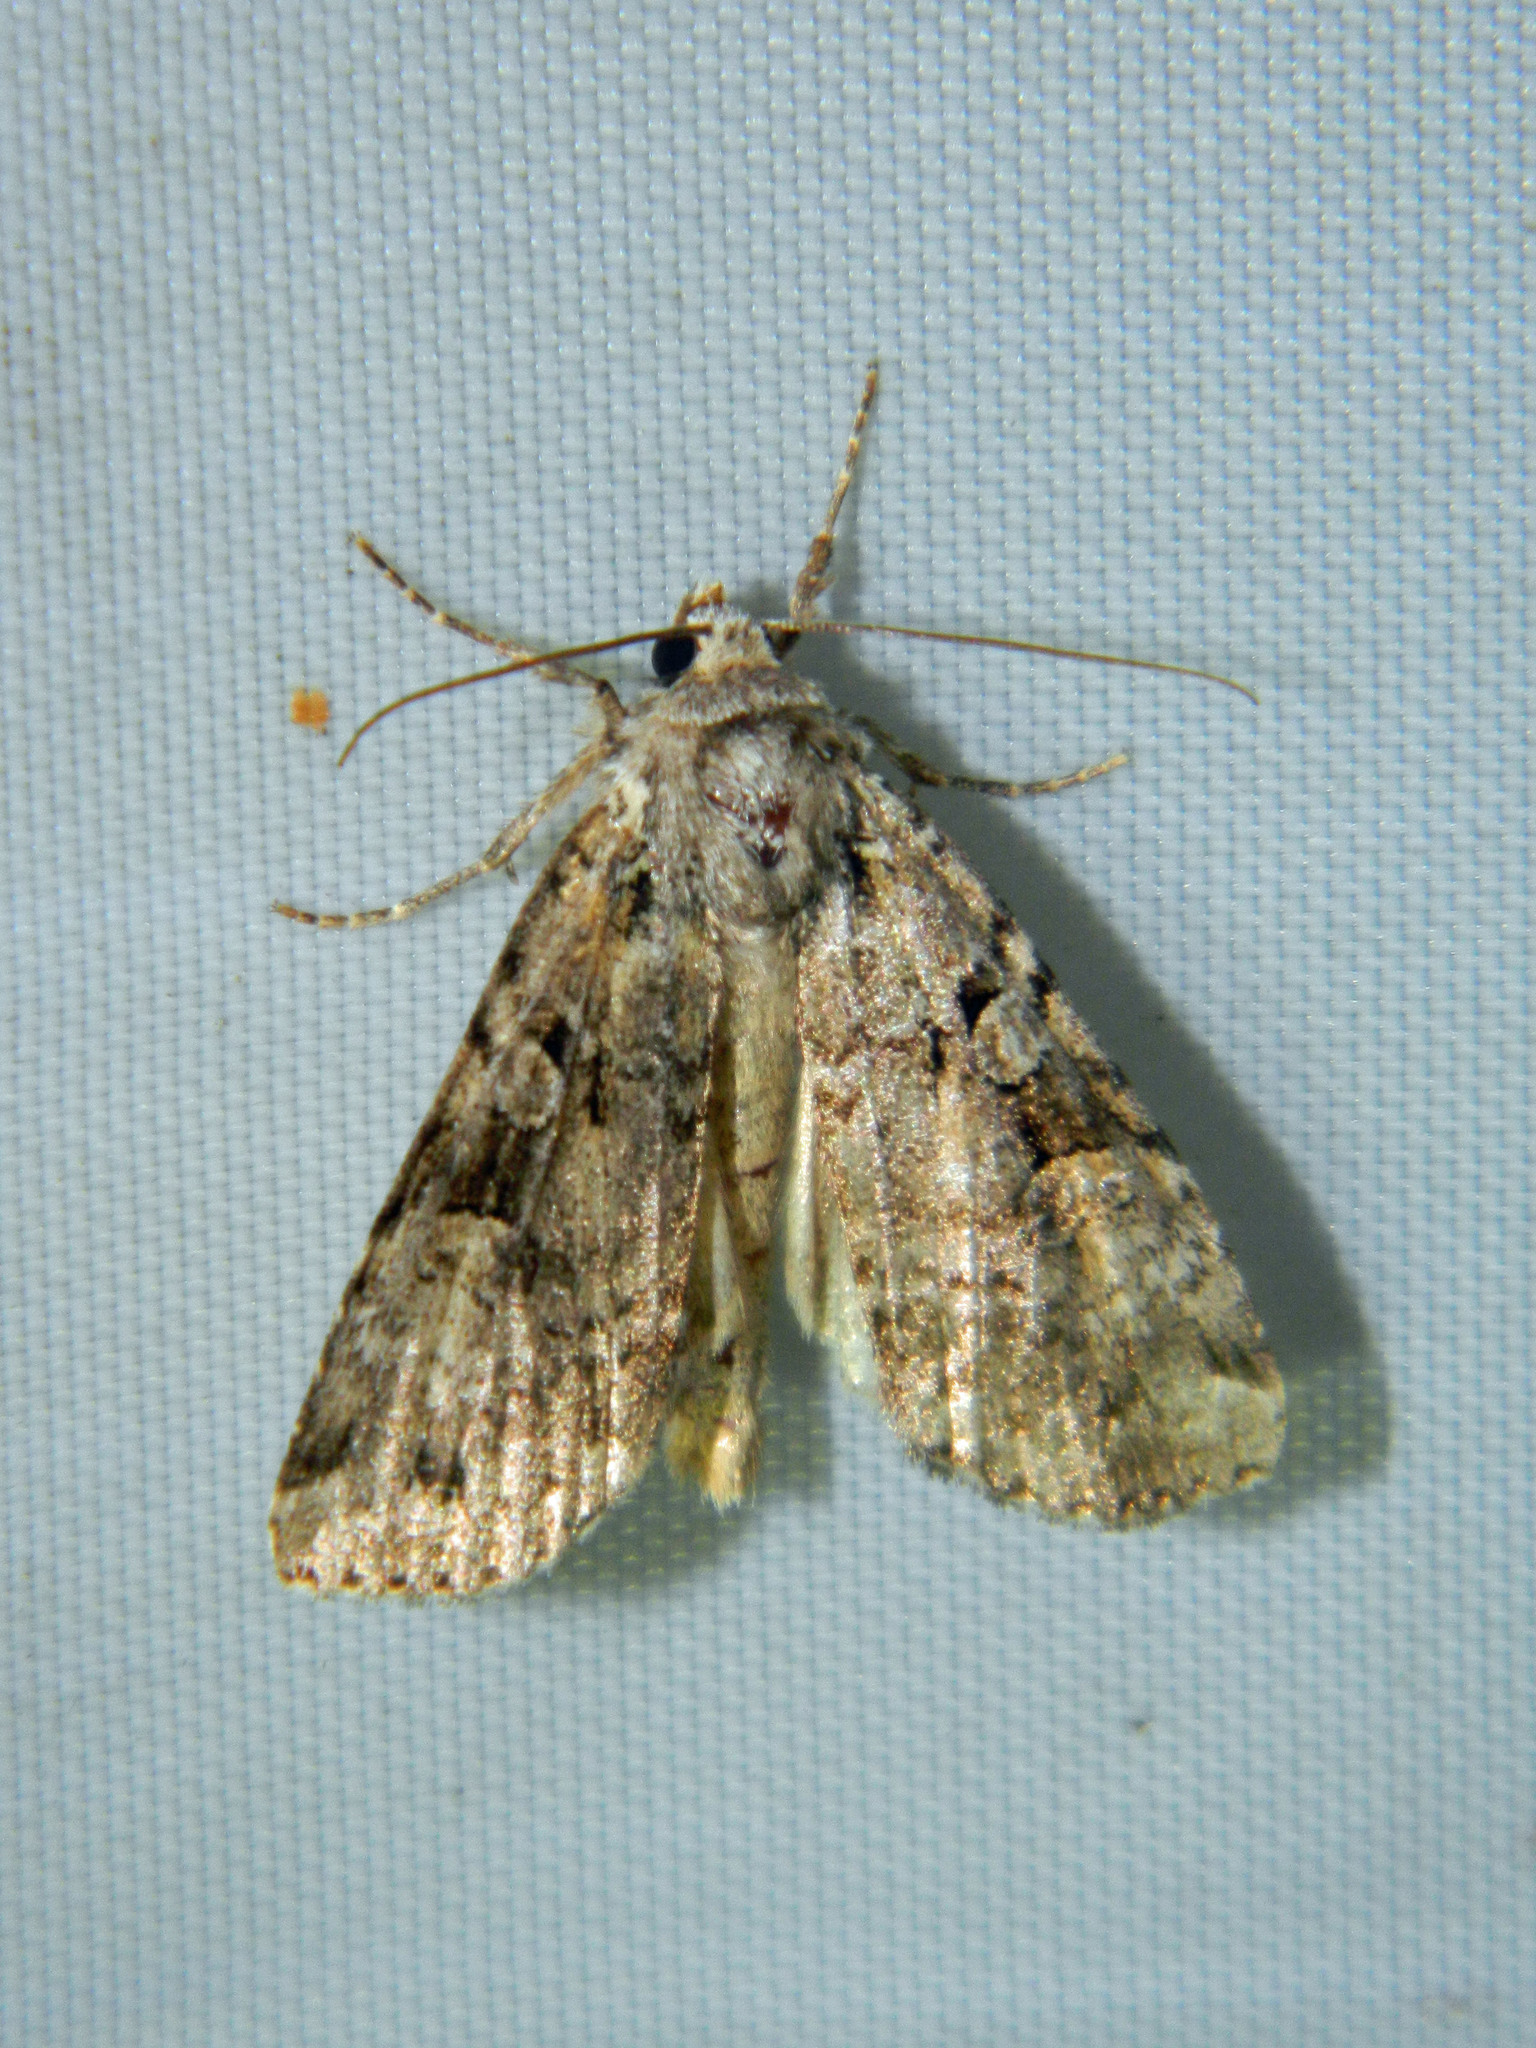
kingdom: Animalia
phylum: Arthropoda
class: Insecta
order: Lepidoptera
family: Noctuidae
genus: Anaplectoides
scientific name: Anaplectoides pressus
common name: Dappled dart
